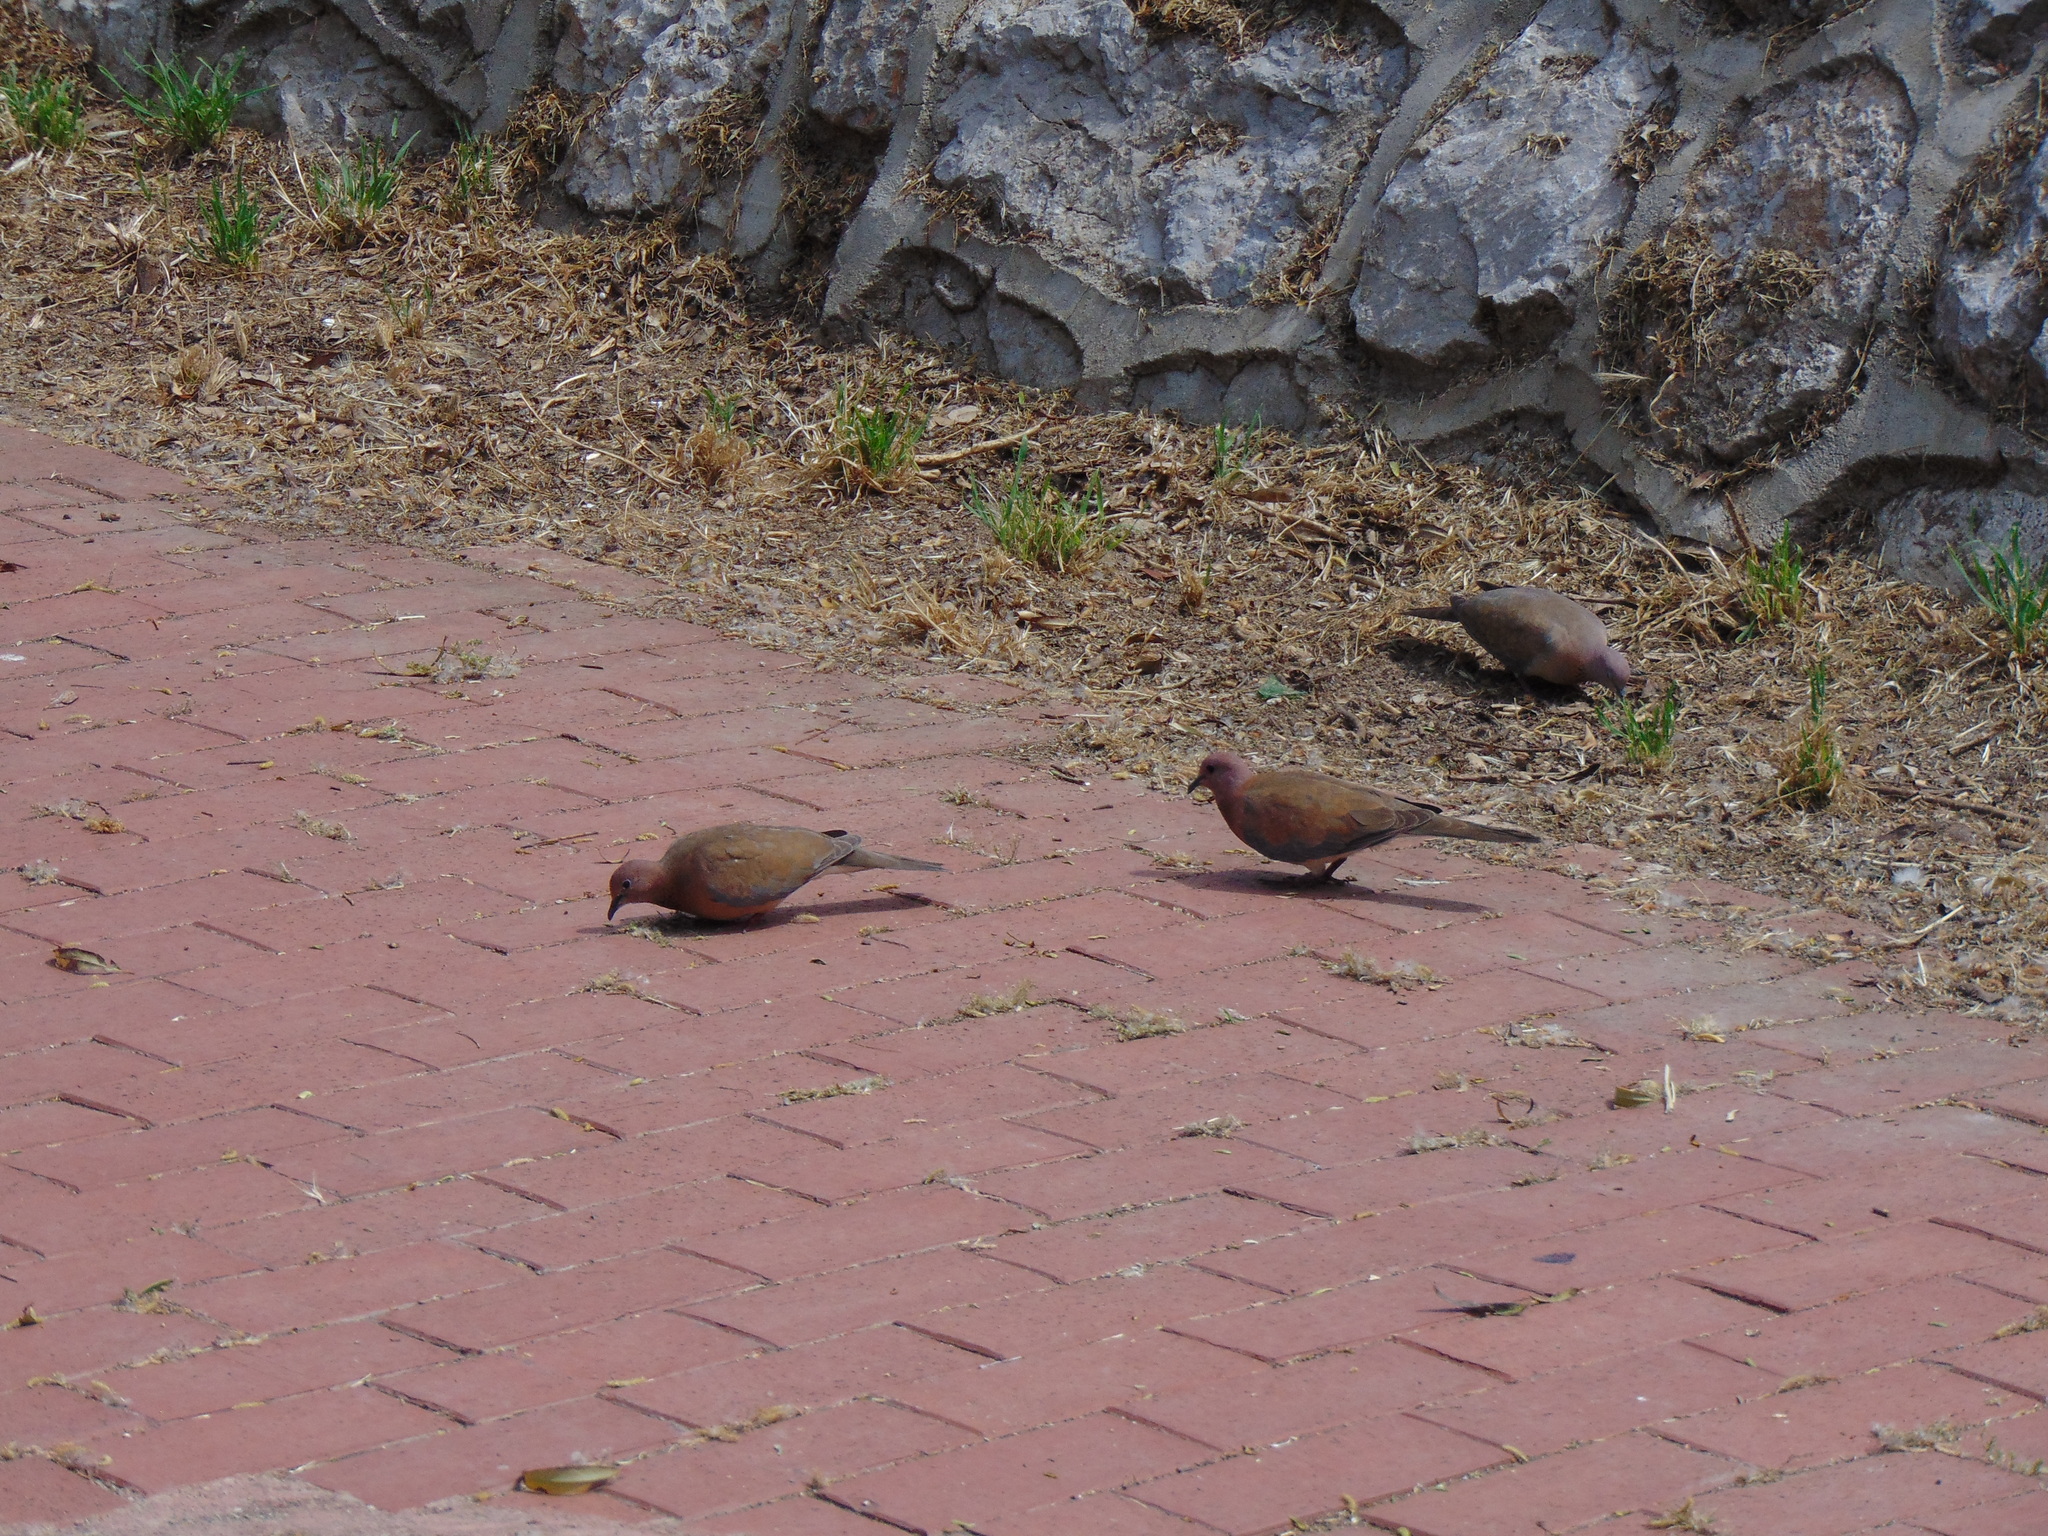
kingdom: Animalia
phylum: Chordata
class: Aves
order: Columbiformes
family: Columbidae
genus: Spilopelia
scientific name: Spilopelia senegalensis
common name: Laughing dove
